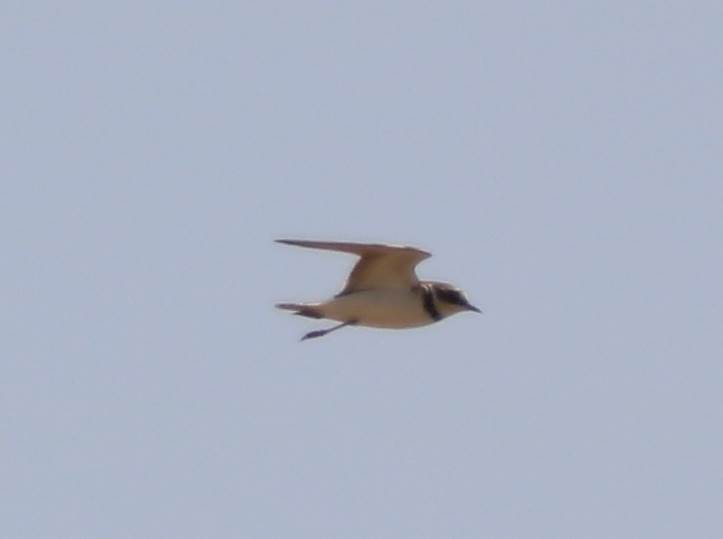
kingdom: Animalia
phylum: Chordata
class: Aves
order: Charadriiformes
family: Charadriidae
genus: Charadrius
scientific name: Charadrius hiaticula
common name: Common ringed plover
